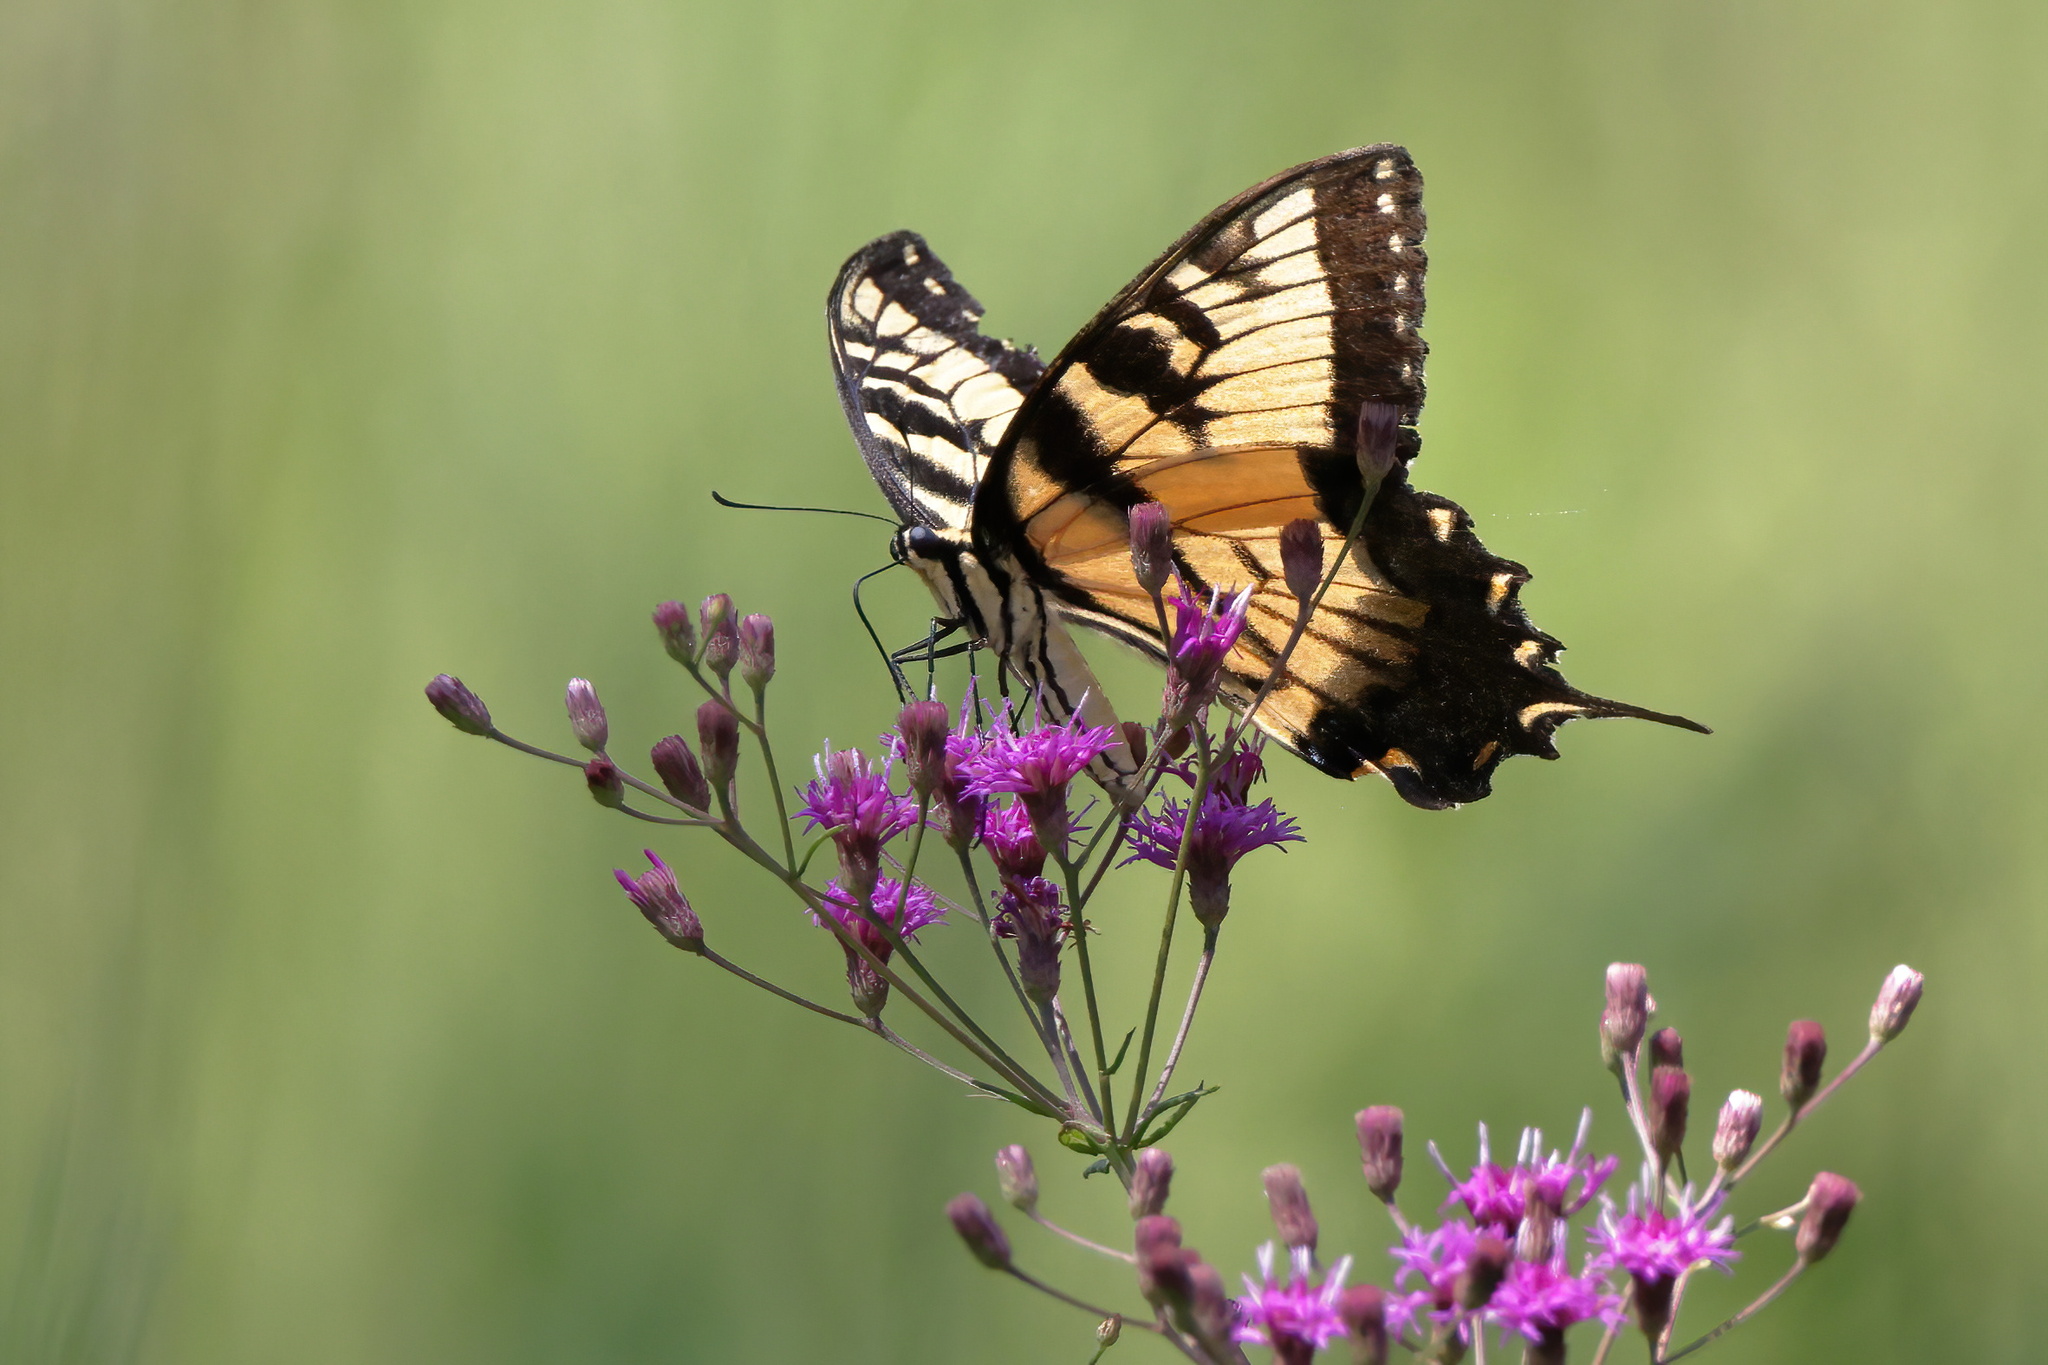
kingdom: Animalia
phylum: Arthropoda
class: Insecta
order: Lepidoptera
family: Papilionidae
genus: Papilio
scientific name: Papilio glaucus
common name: Tiger swallowtail
